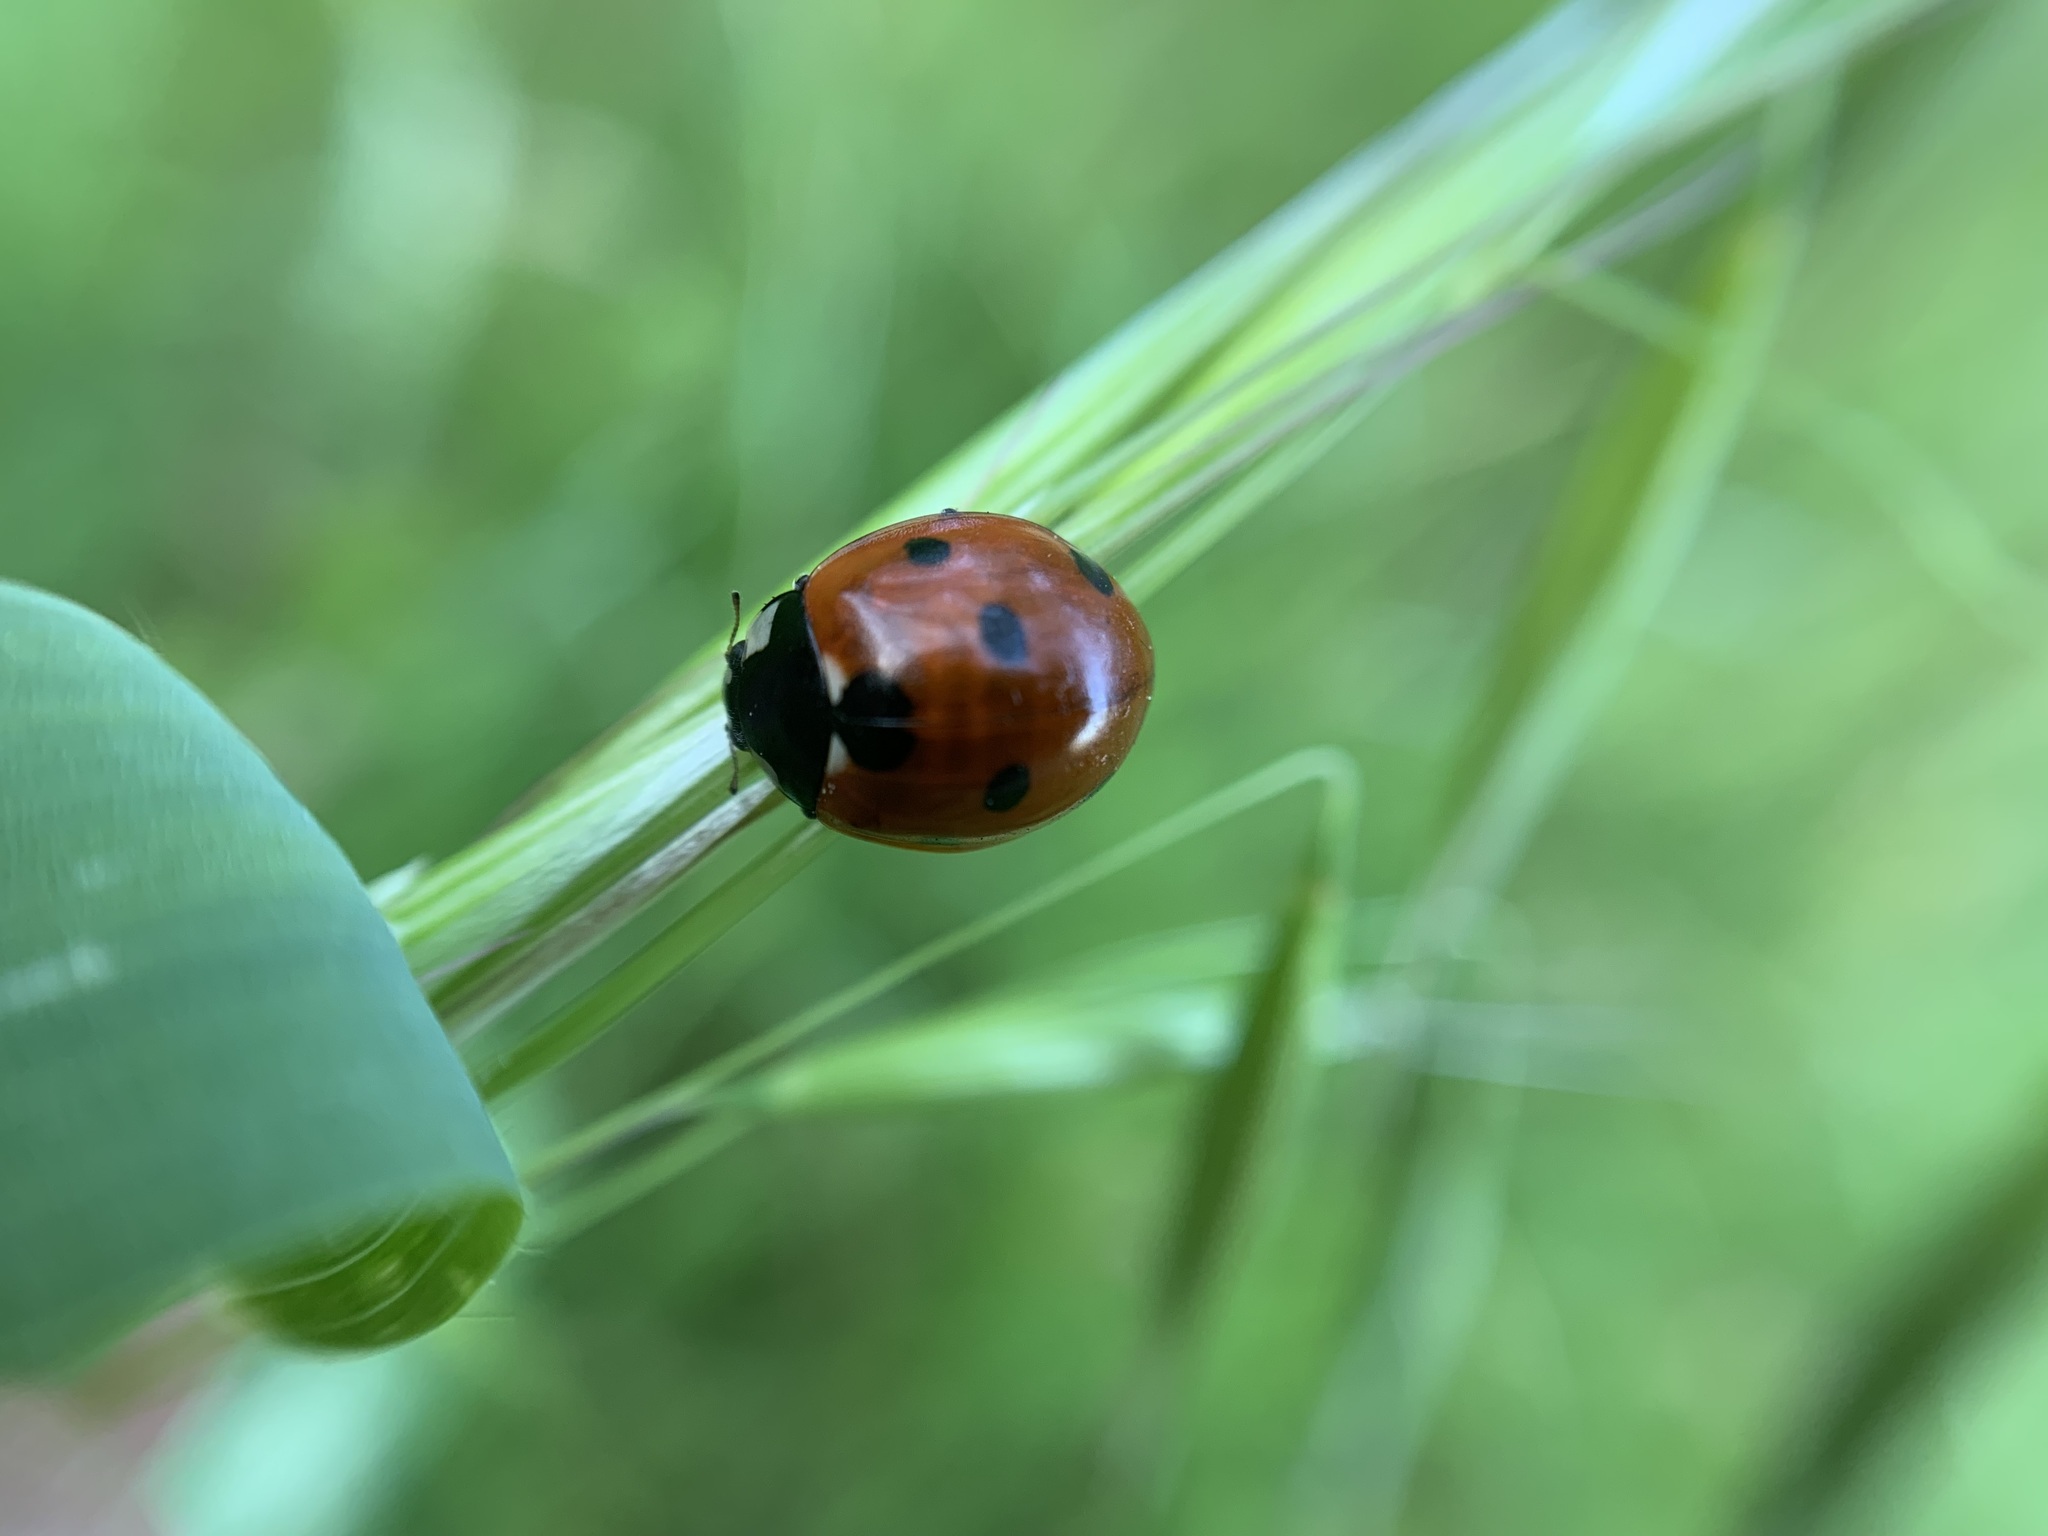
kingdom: Animalia
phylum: Arthropoda
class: Insecta
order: Coleoptera
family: Coccinellidae
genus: Coccinella
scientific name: Coccinella septempunctata
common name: Sevenspotted lady beetle
